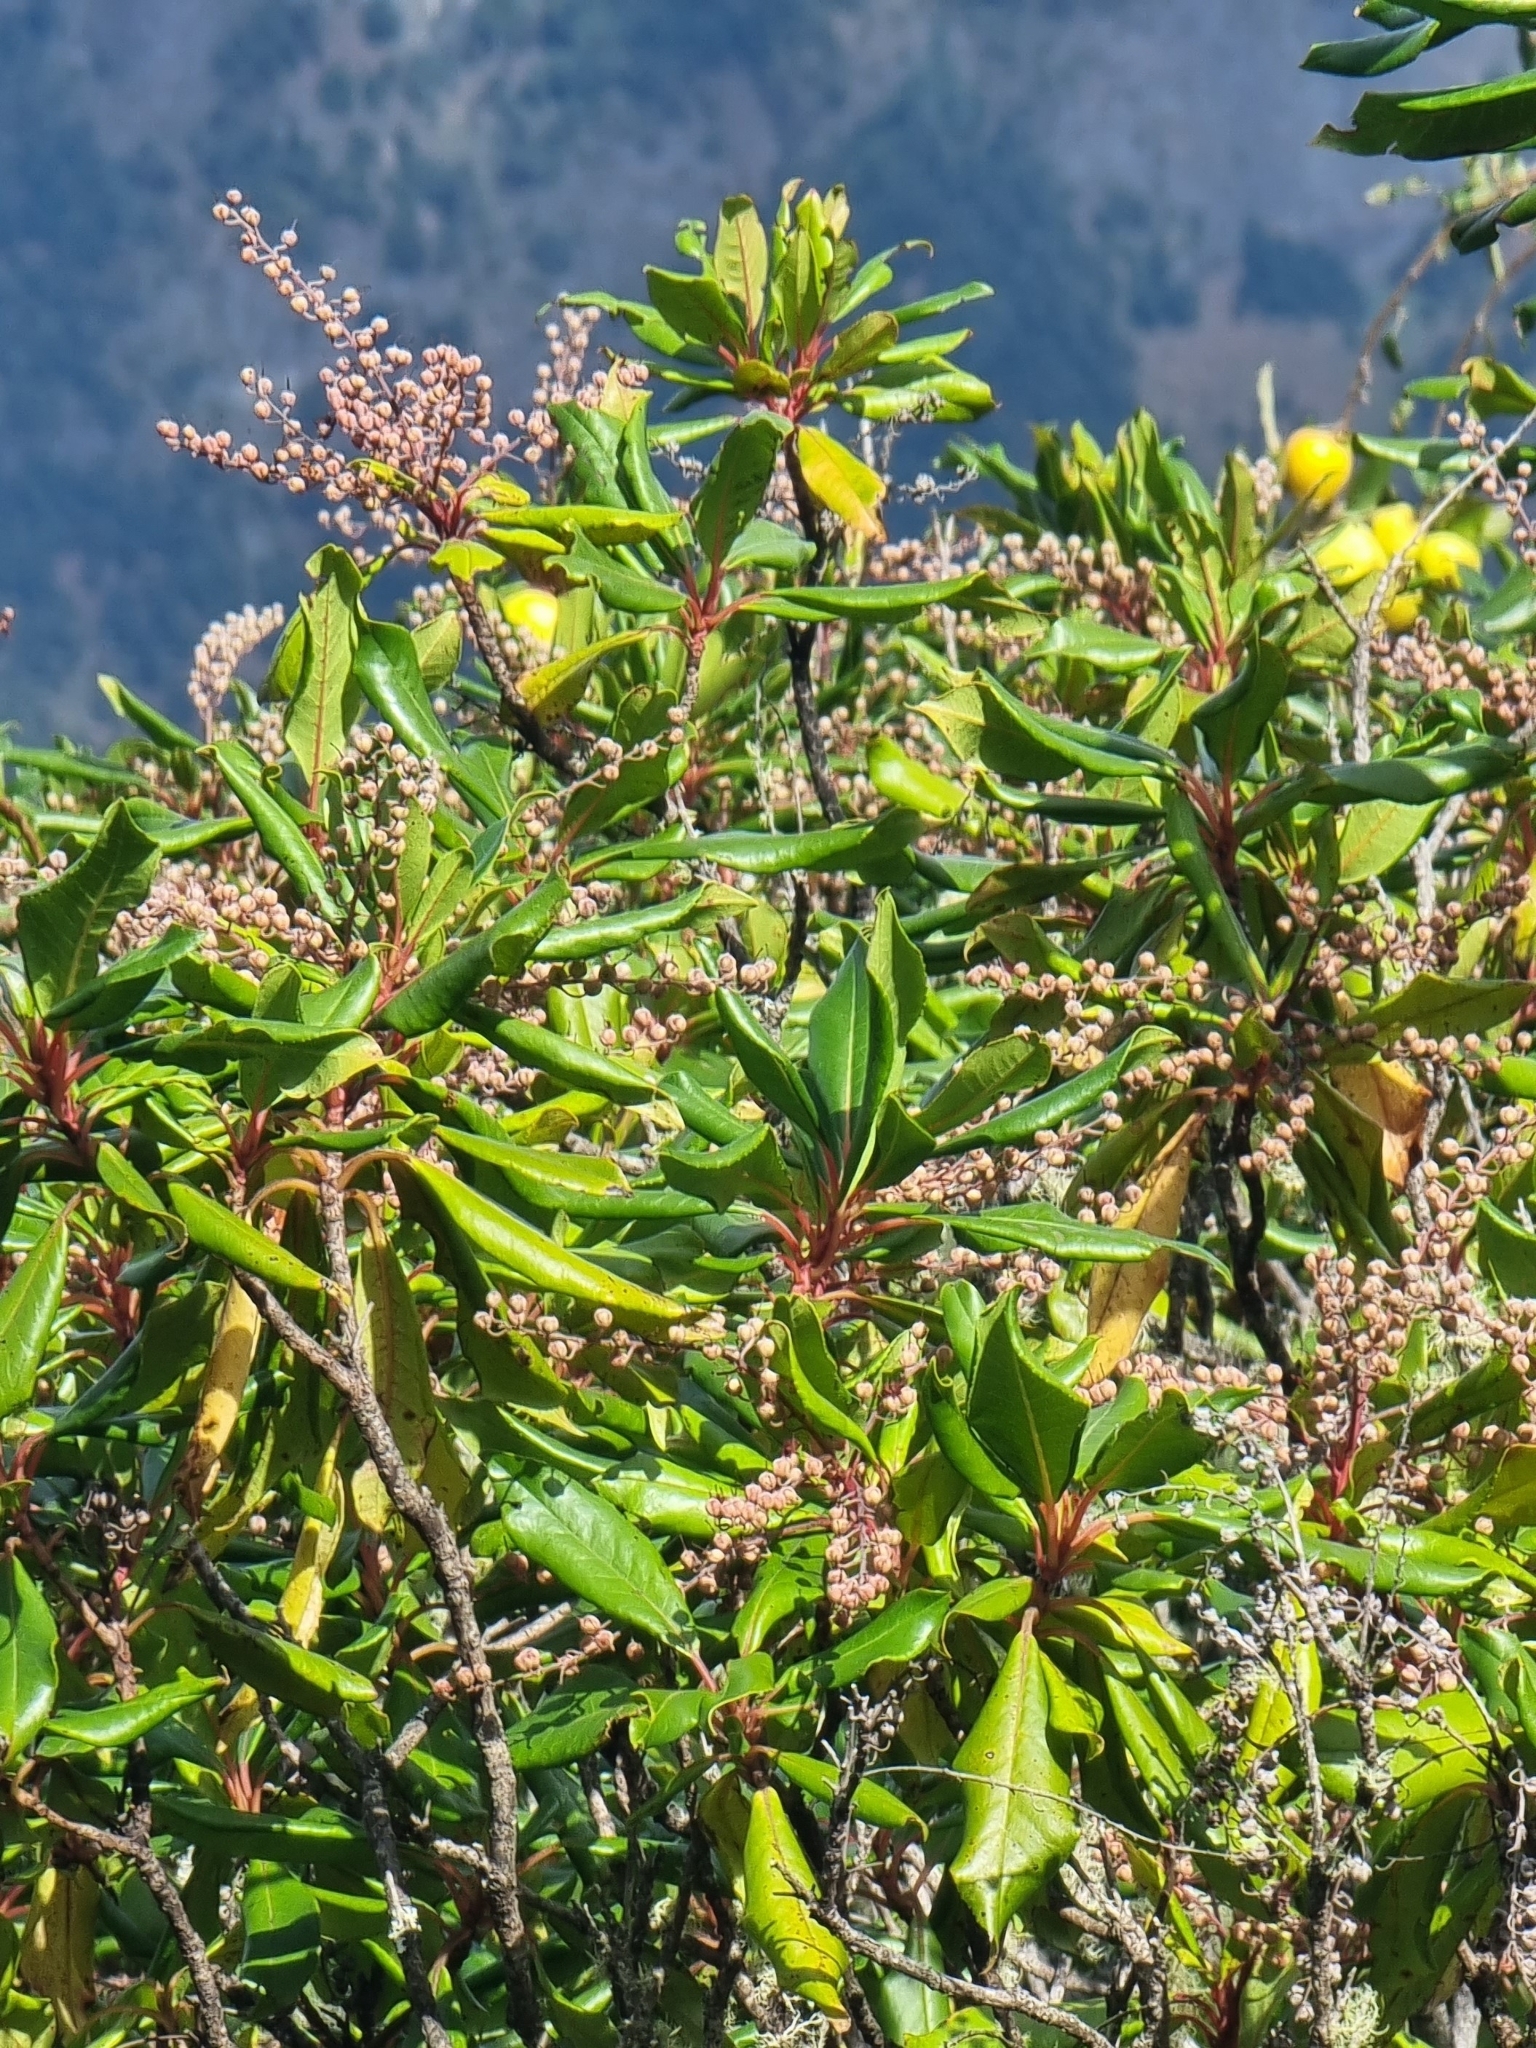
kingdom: Plantae
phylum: Tracheophyta
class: Magnoliopsida
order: Ericales
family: Clethraceae
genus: Clethra
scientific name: Clethra arborea
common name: Lily-of-the-valley-tree
